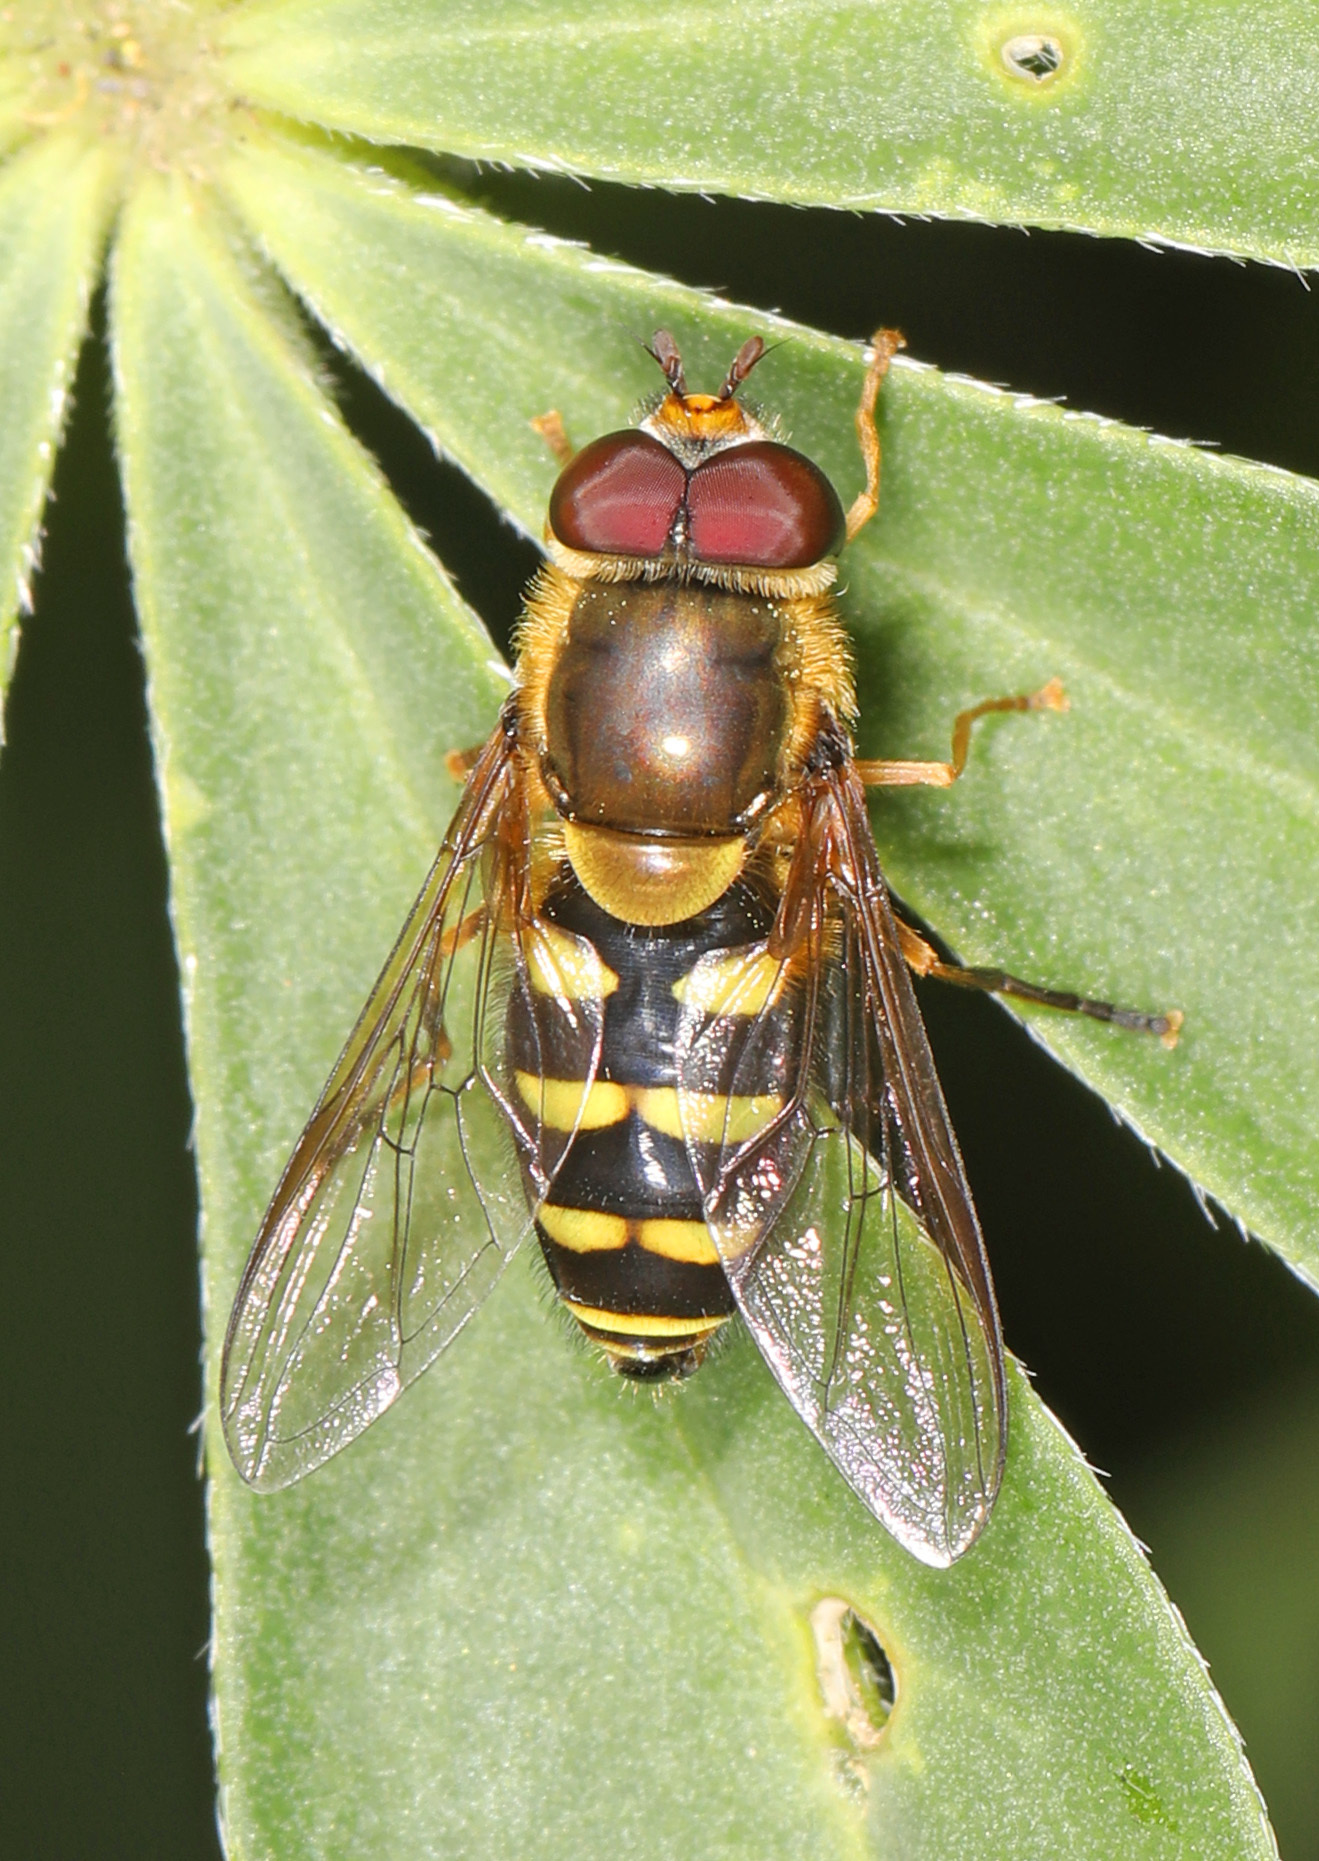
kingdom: Animalia
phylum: Arthropoda
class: Insecta
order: Diptera
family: Syrphidae
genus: Syrphus
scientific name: Syrphus opinator
